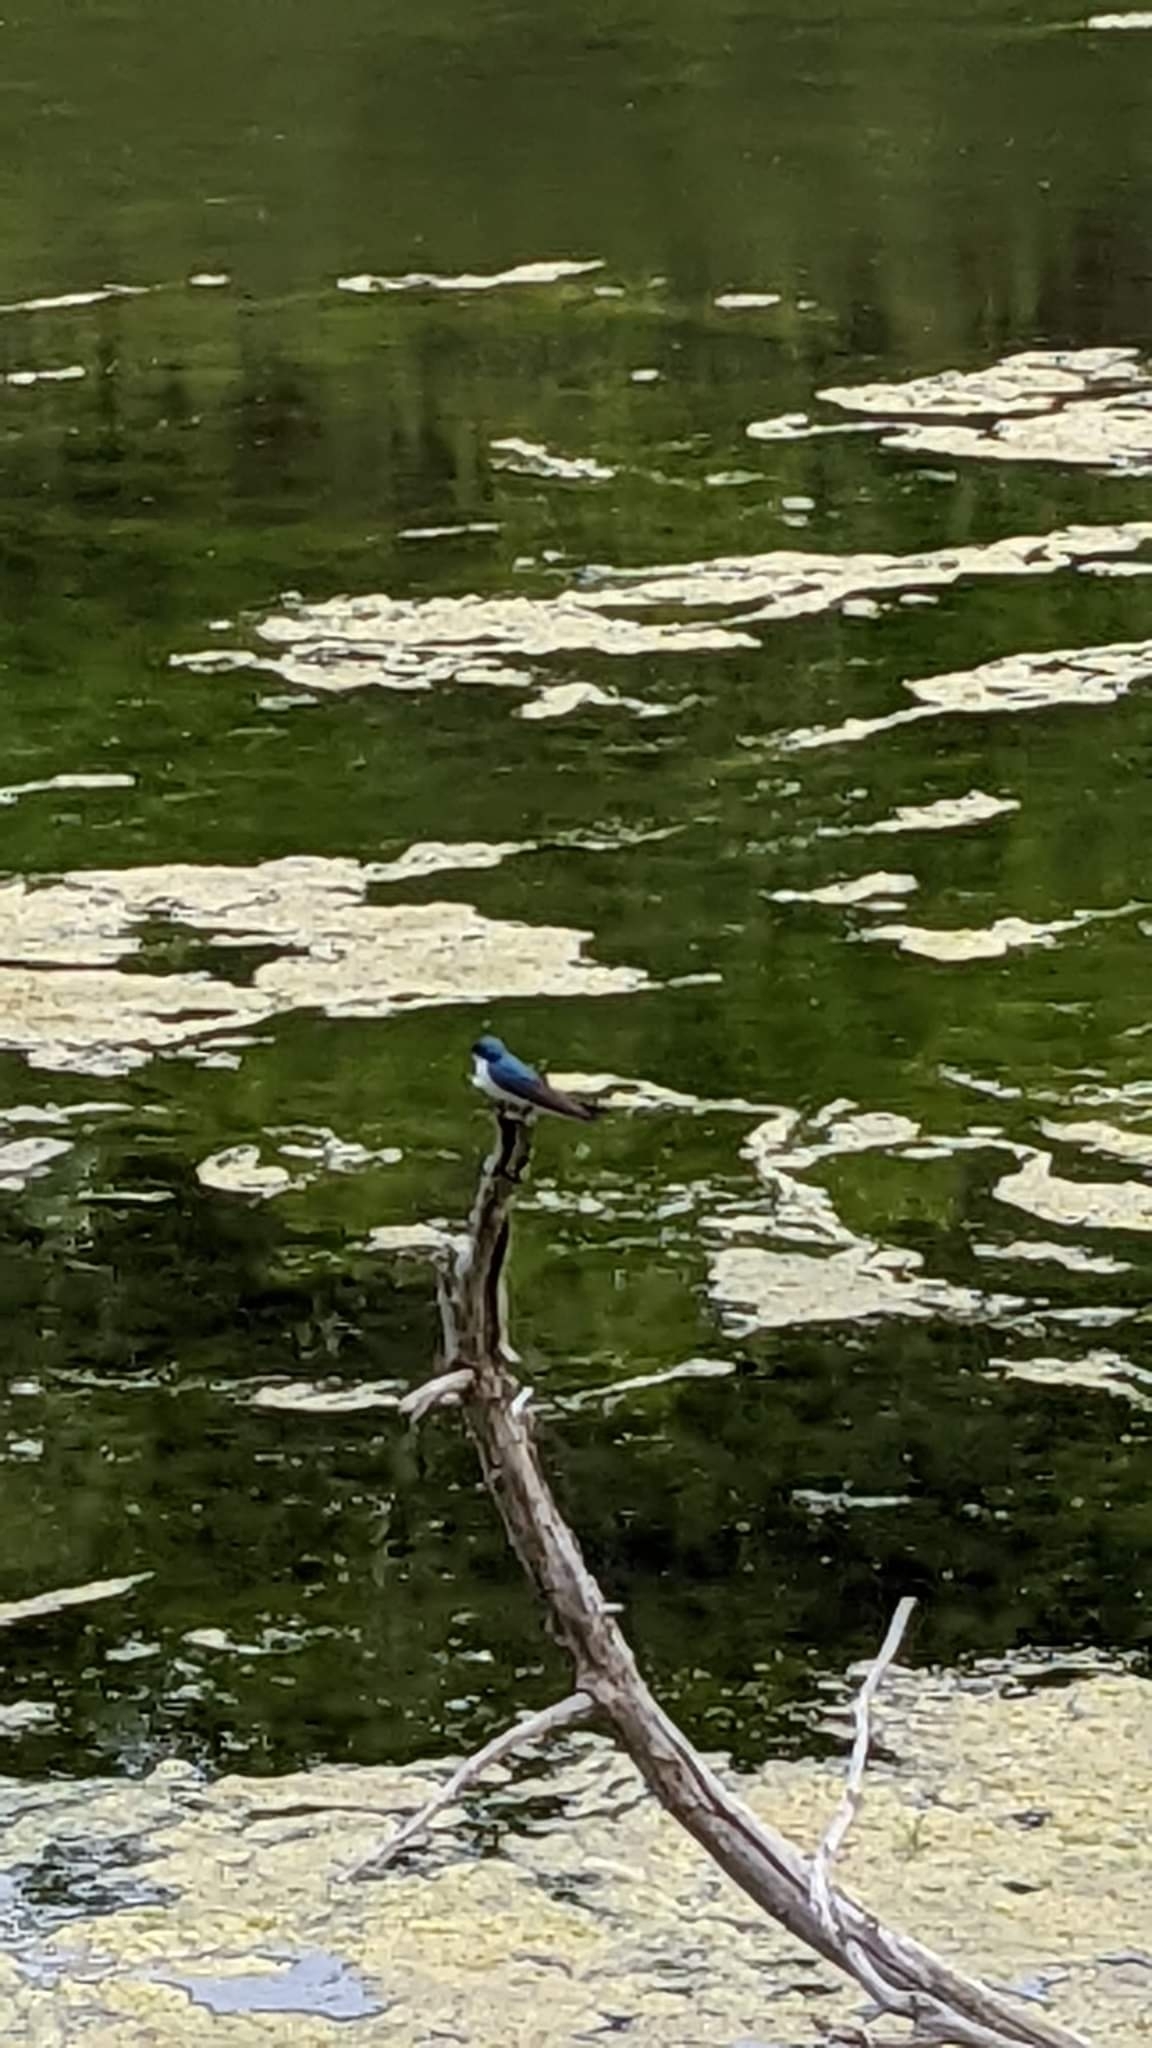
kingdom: Animalia
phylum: Chordata
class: Aves
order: Passeriformes
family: Hirundinidae
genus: Tachycineta
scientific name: Tachycineta bicolor
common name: Tree swallow
